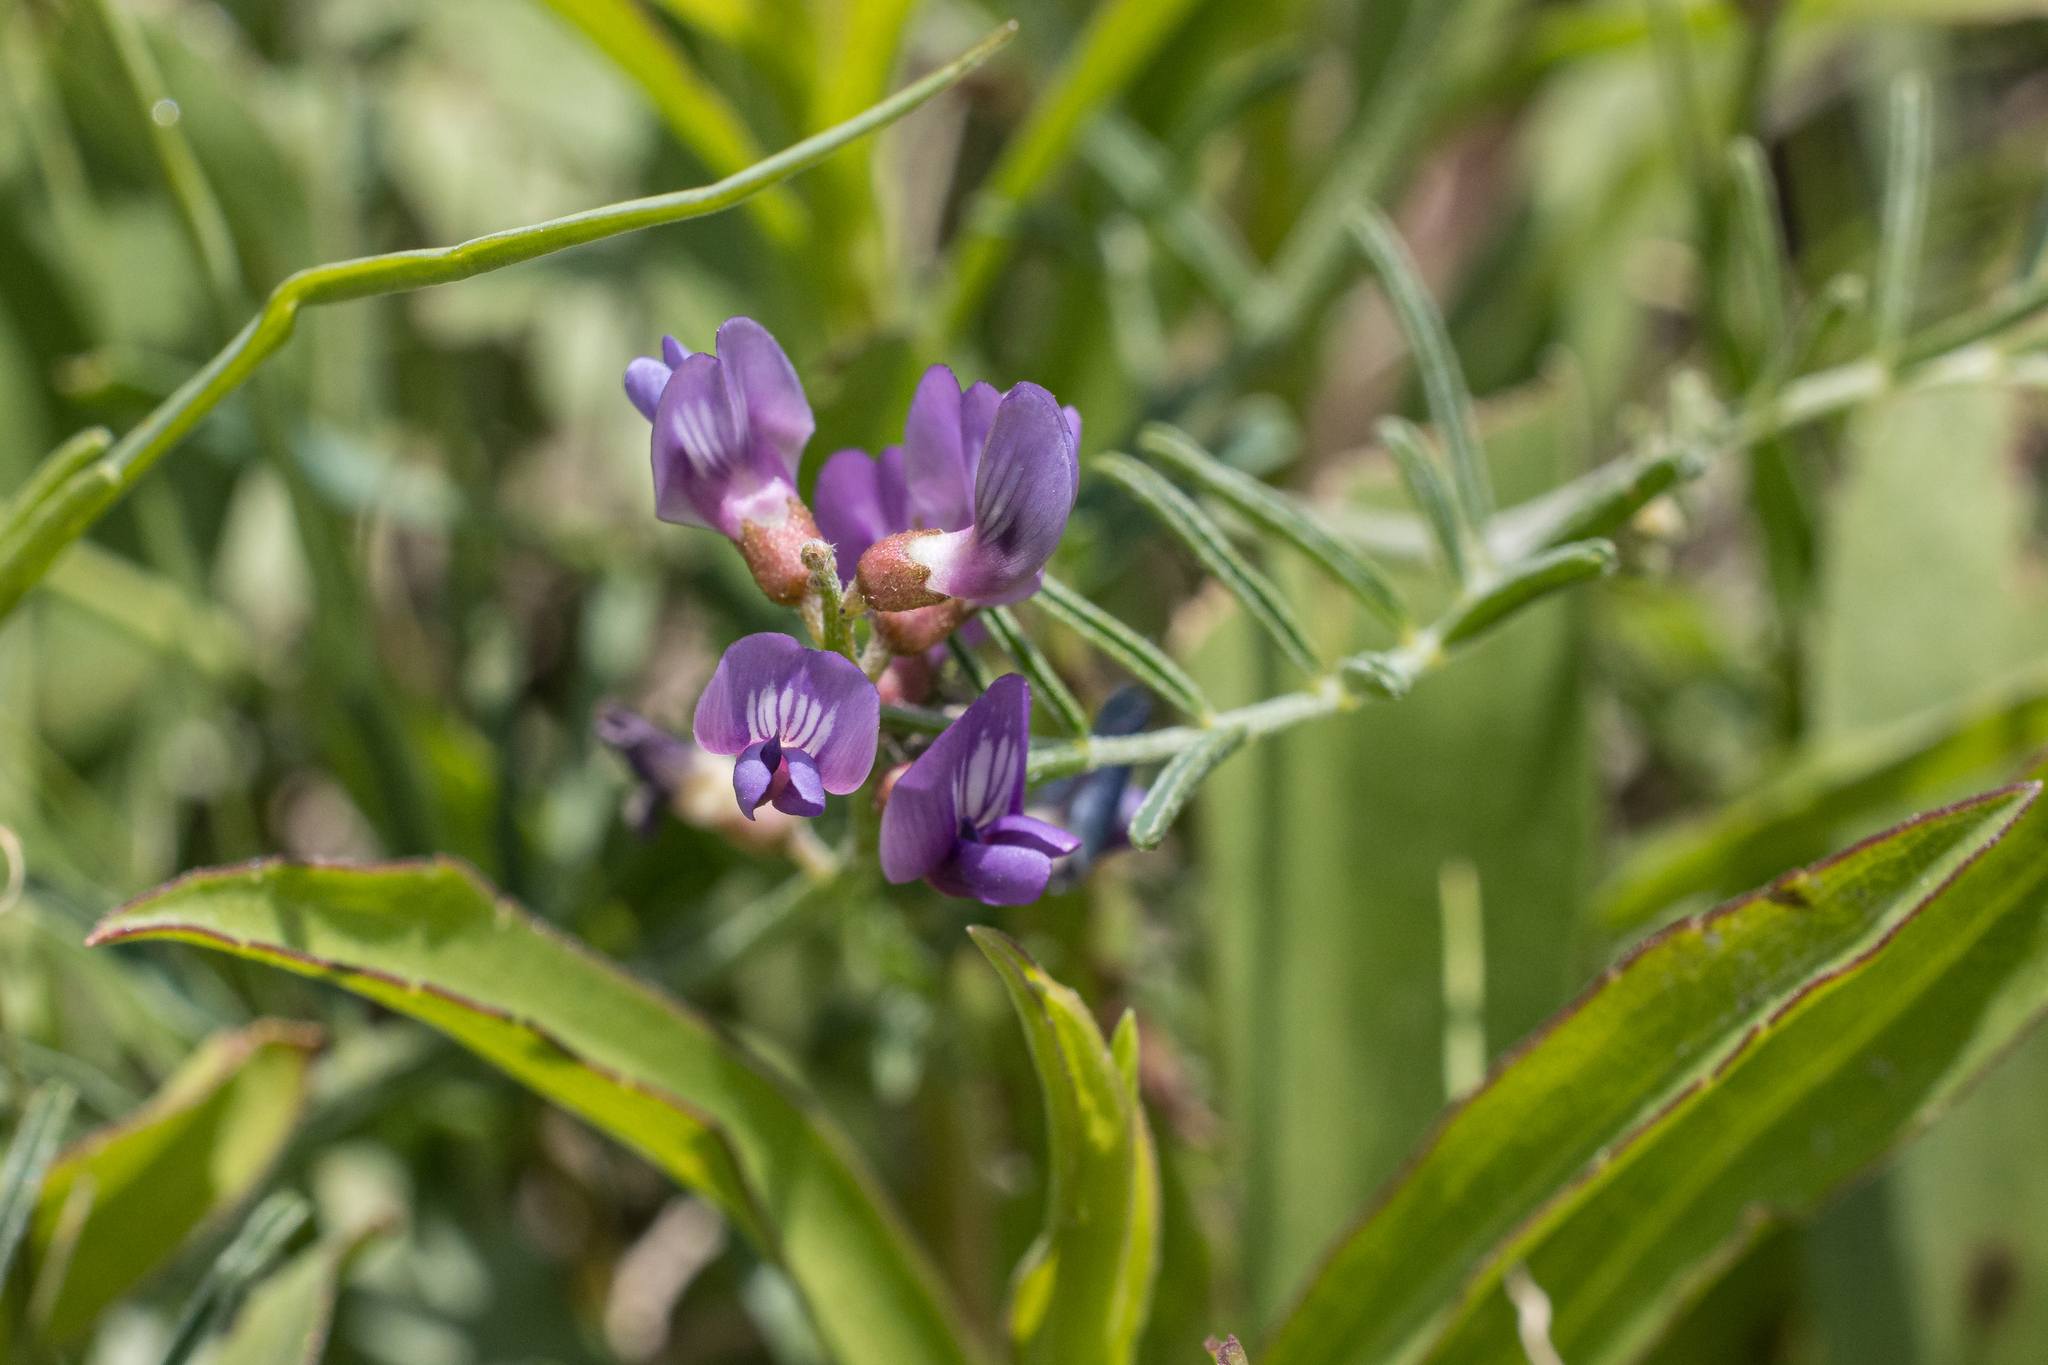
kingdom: Plantae
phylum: Tracheophyta
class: Magnoliopsida
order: Fabales
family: Fabaceae
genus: Astragalus
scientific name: Astragalus gracilis
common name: Slender milk-vetch
